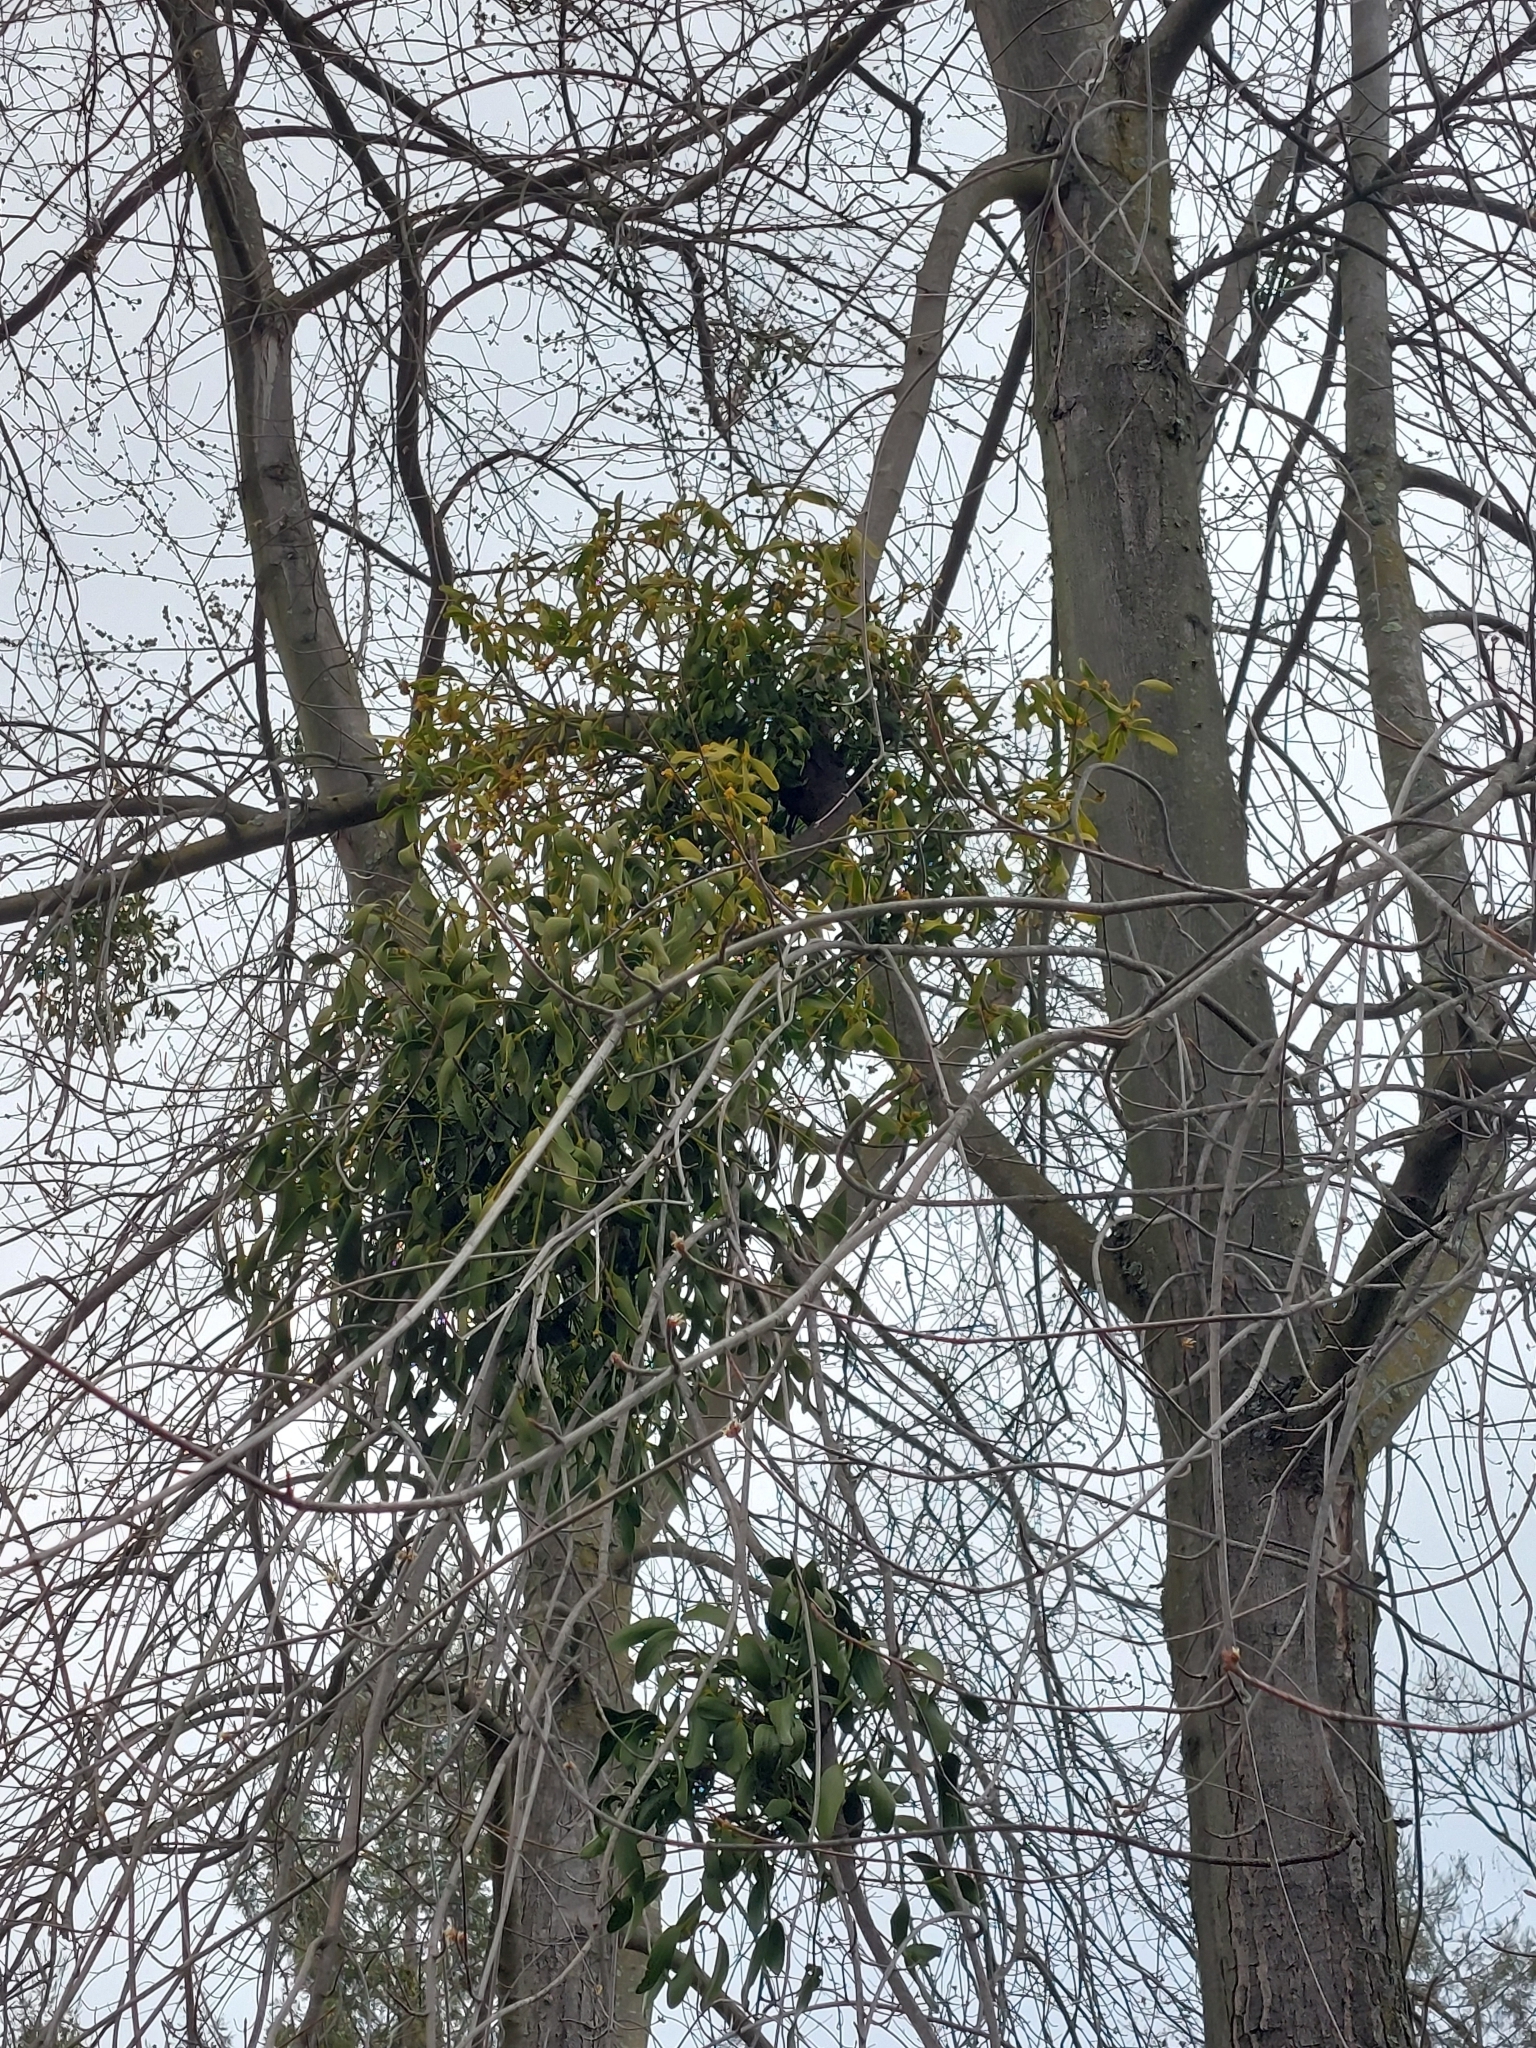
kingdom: Plantae
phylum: Tracheophyta
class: Magnoliopsida
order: Santalales
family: Viscaceae
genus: Viscum
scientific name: Viscum album
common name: Mistletoe
